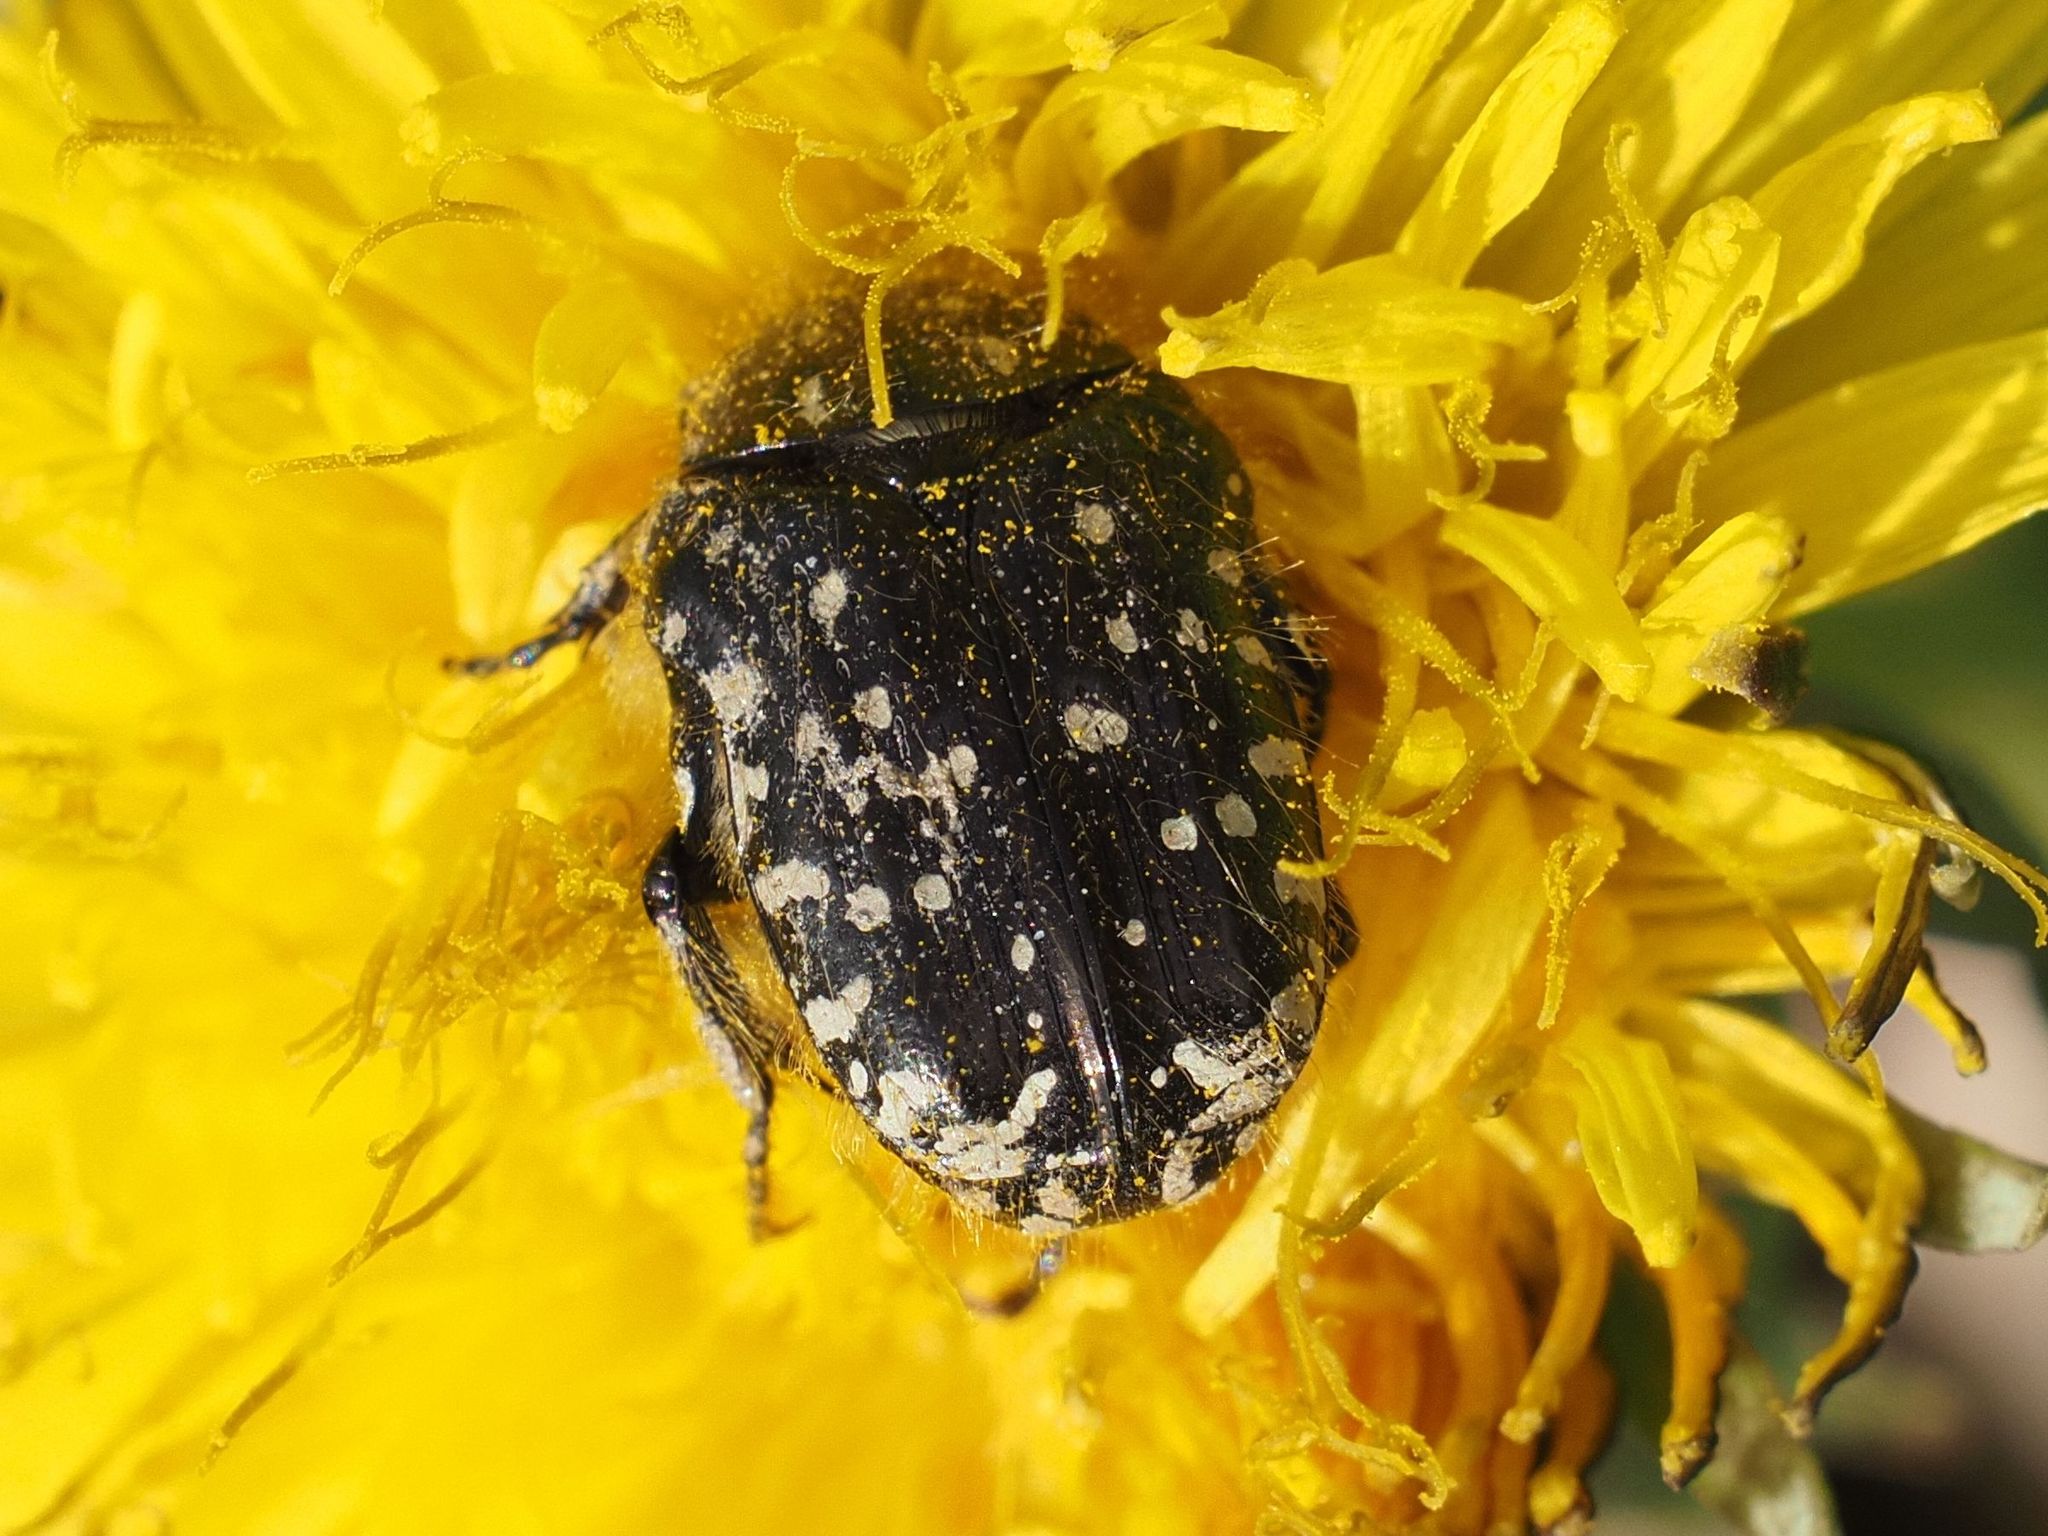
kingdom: Animalia
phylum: Arthropoda
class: Insecta
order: Coleoptera
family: Scarabaeidae
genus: Oxythyrea
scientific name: Oxythyrea funesta
